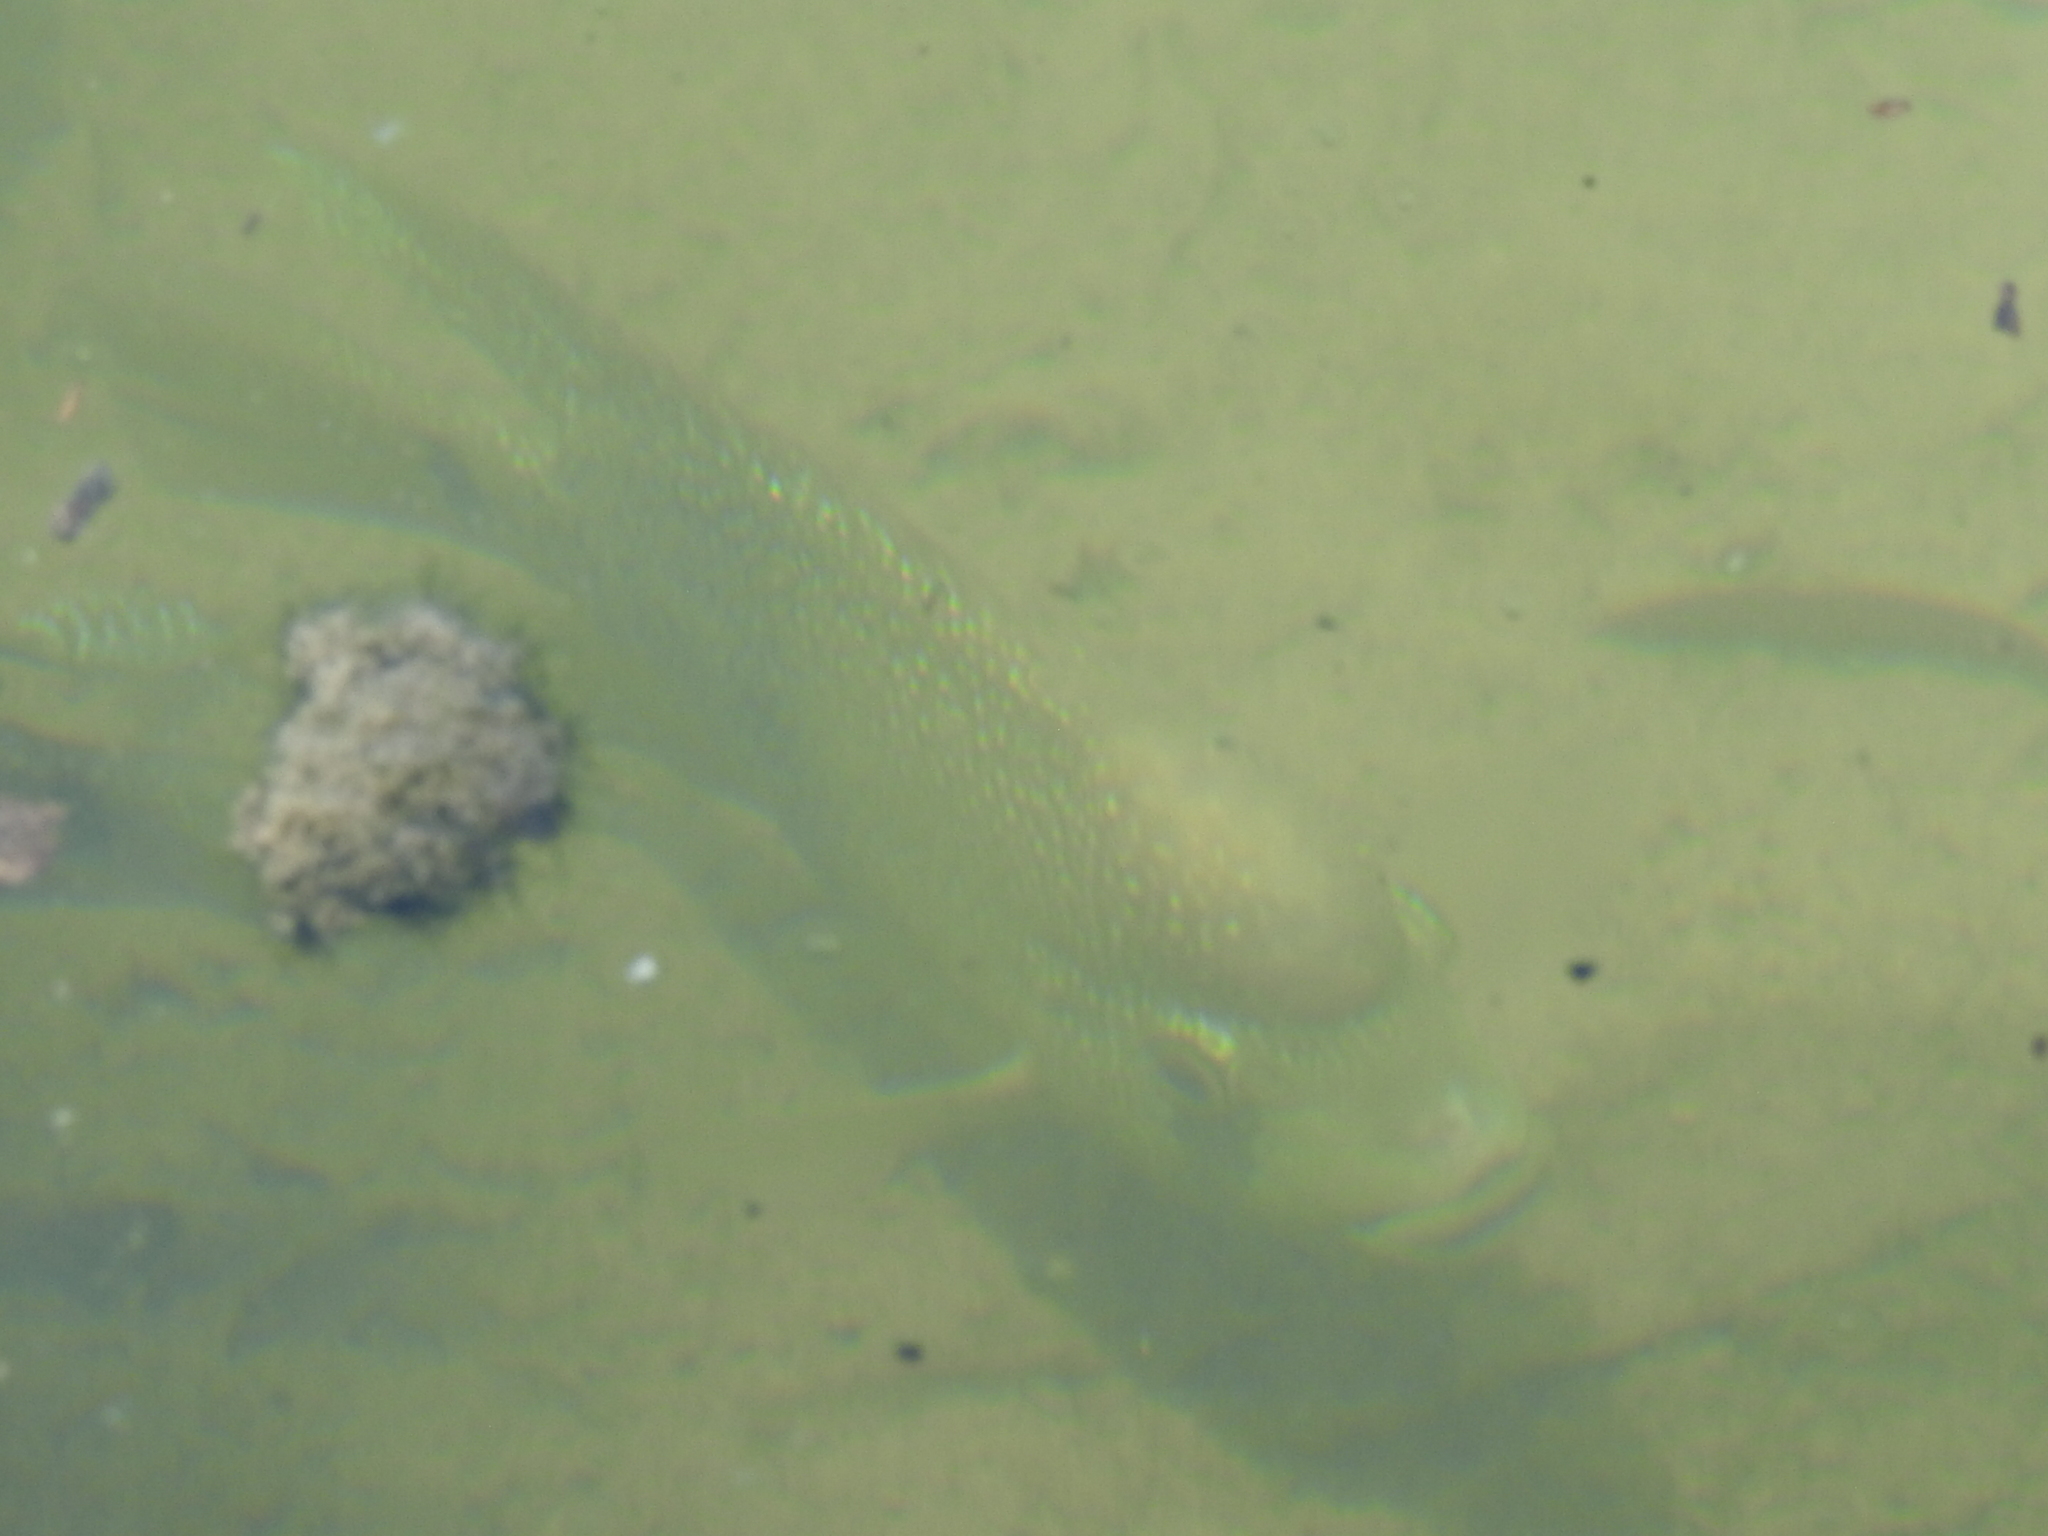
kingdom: Animalia
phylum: Chordata
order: Perciformes
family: Cichlidae
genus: Herichthys
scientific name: Herichthys cyanoguttatus
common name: Rio grande cichlid
